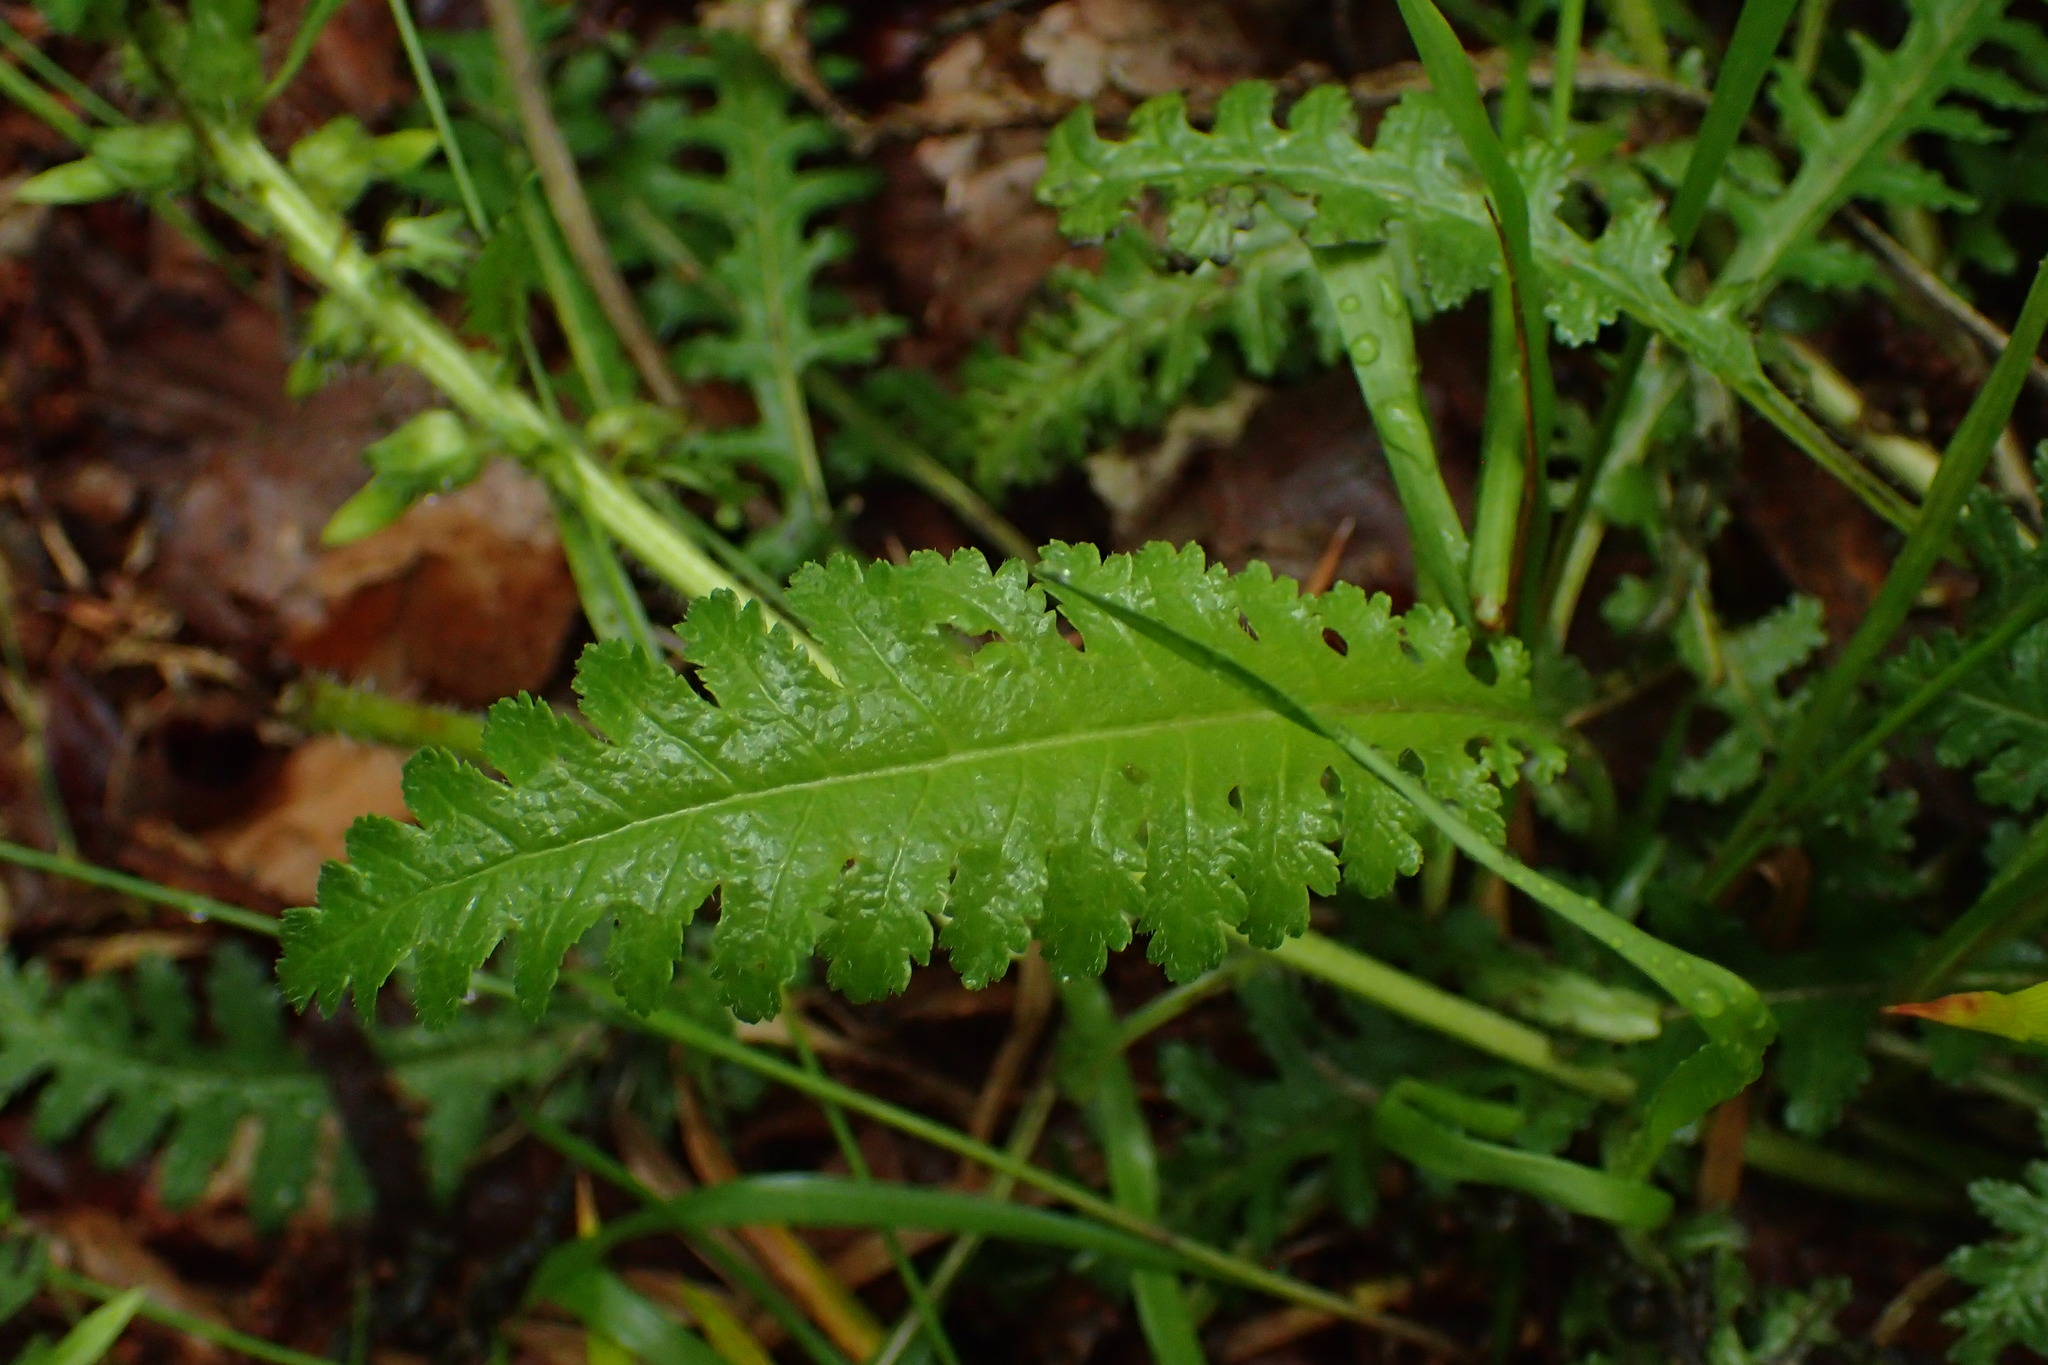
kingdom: Plantae
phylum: Tracheophyta
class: Magnoliopsida
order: Lamiales
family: Orobanchaceae
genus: Pedicularis
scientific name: Pedicularis canadensis
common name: Early lousewort
